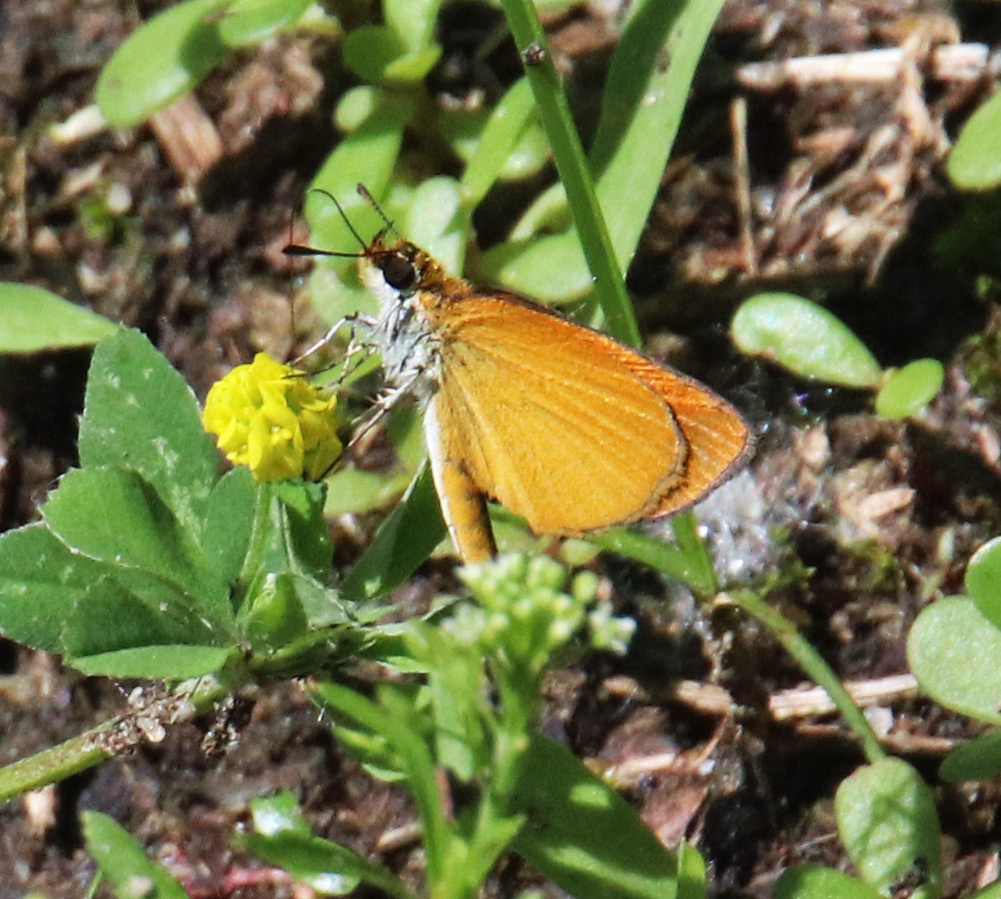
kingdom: Animalia
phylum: Arthropoda
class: Insecta
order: Lepidoptera
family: Hesperiidae
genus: Ancyloxypha
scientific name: Ancyloxypha numitor
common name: Least skipper
